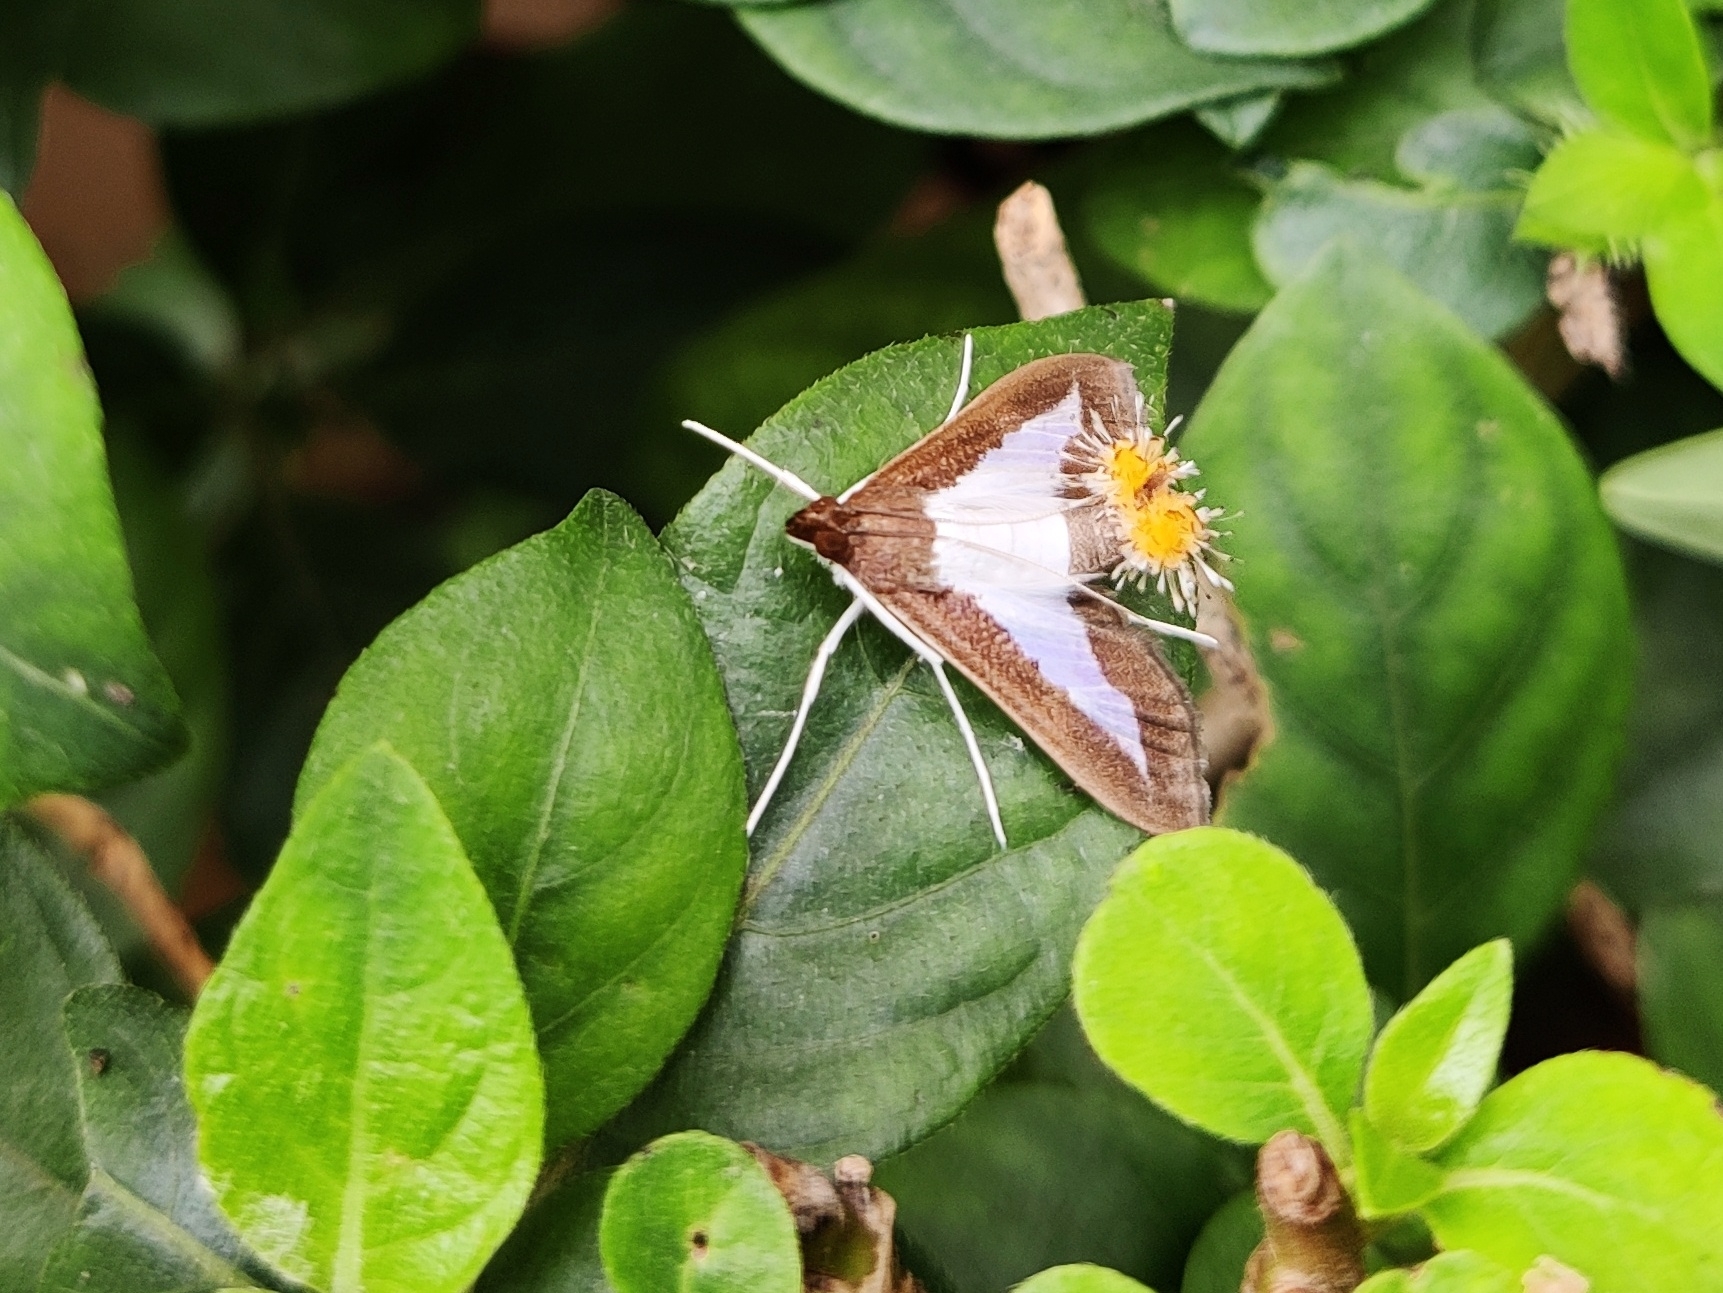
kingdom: Animalia
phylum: Arthropoda
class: Insecta
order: Lepidoptera
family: Crambidae
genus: Diaphania
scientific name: Diaphania indica
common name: Cucumber moth
